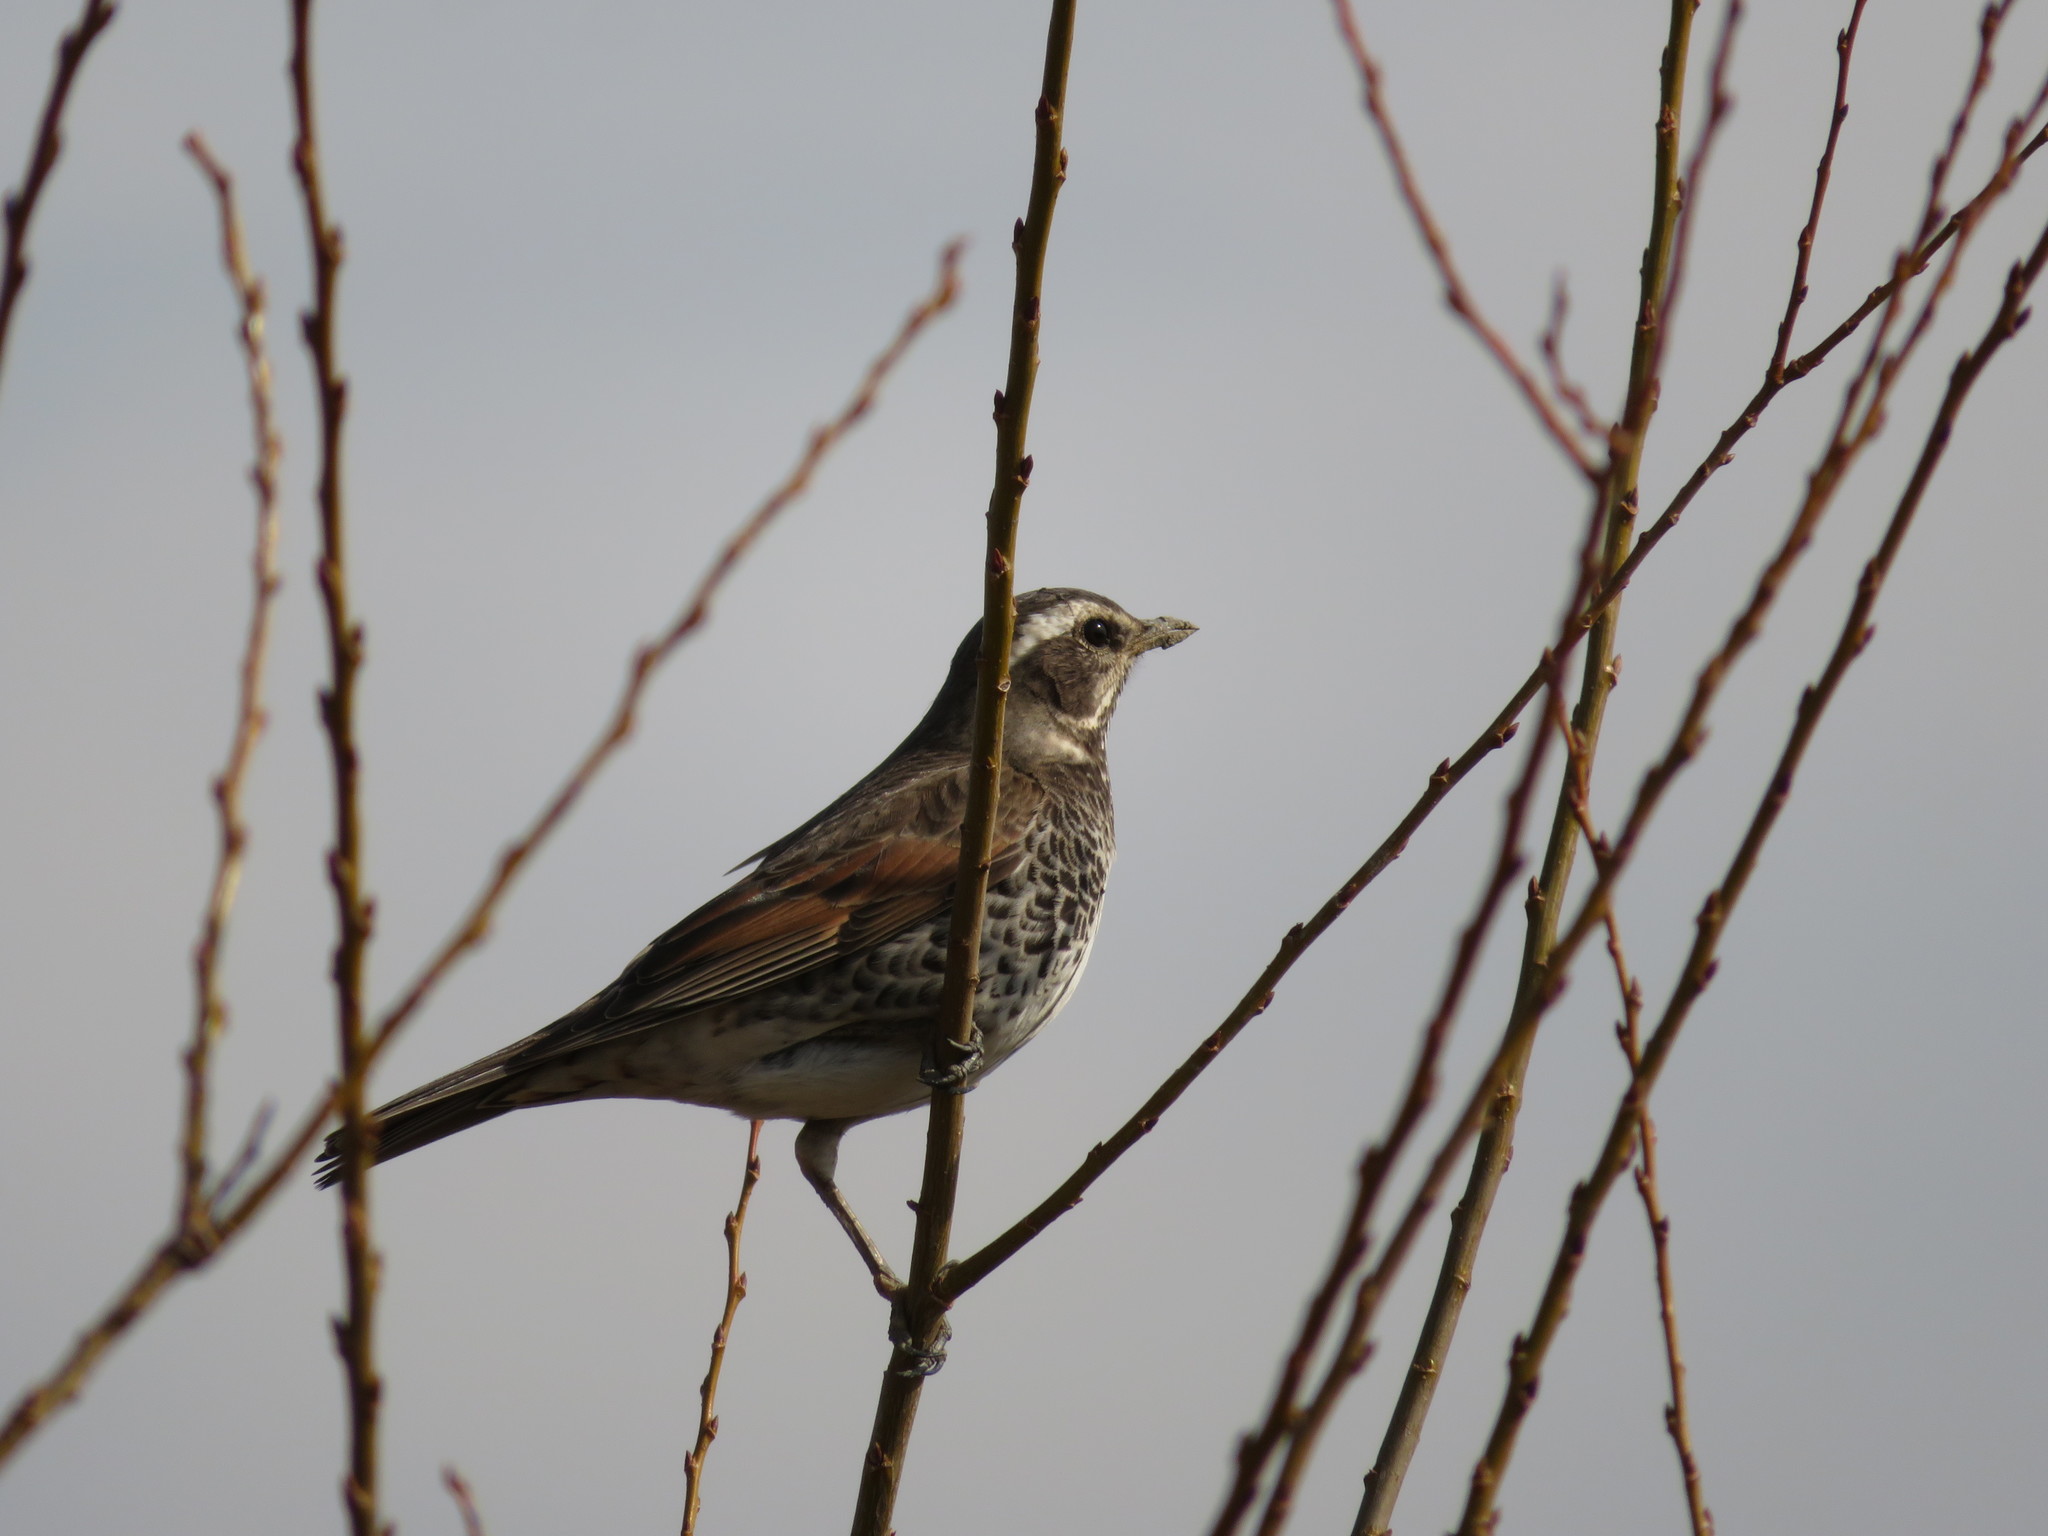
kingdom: Animalia
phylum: Chordata
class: Aves
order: Passeriformes
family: Turdidae
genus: Turdus
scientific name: Turdus eunomus
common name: Dusky thrush
